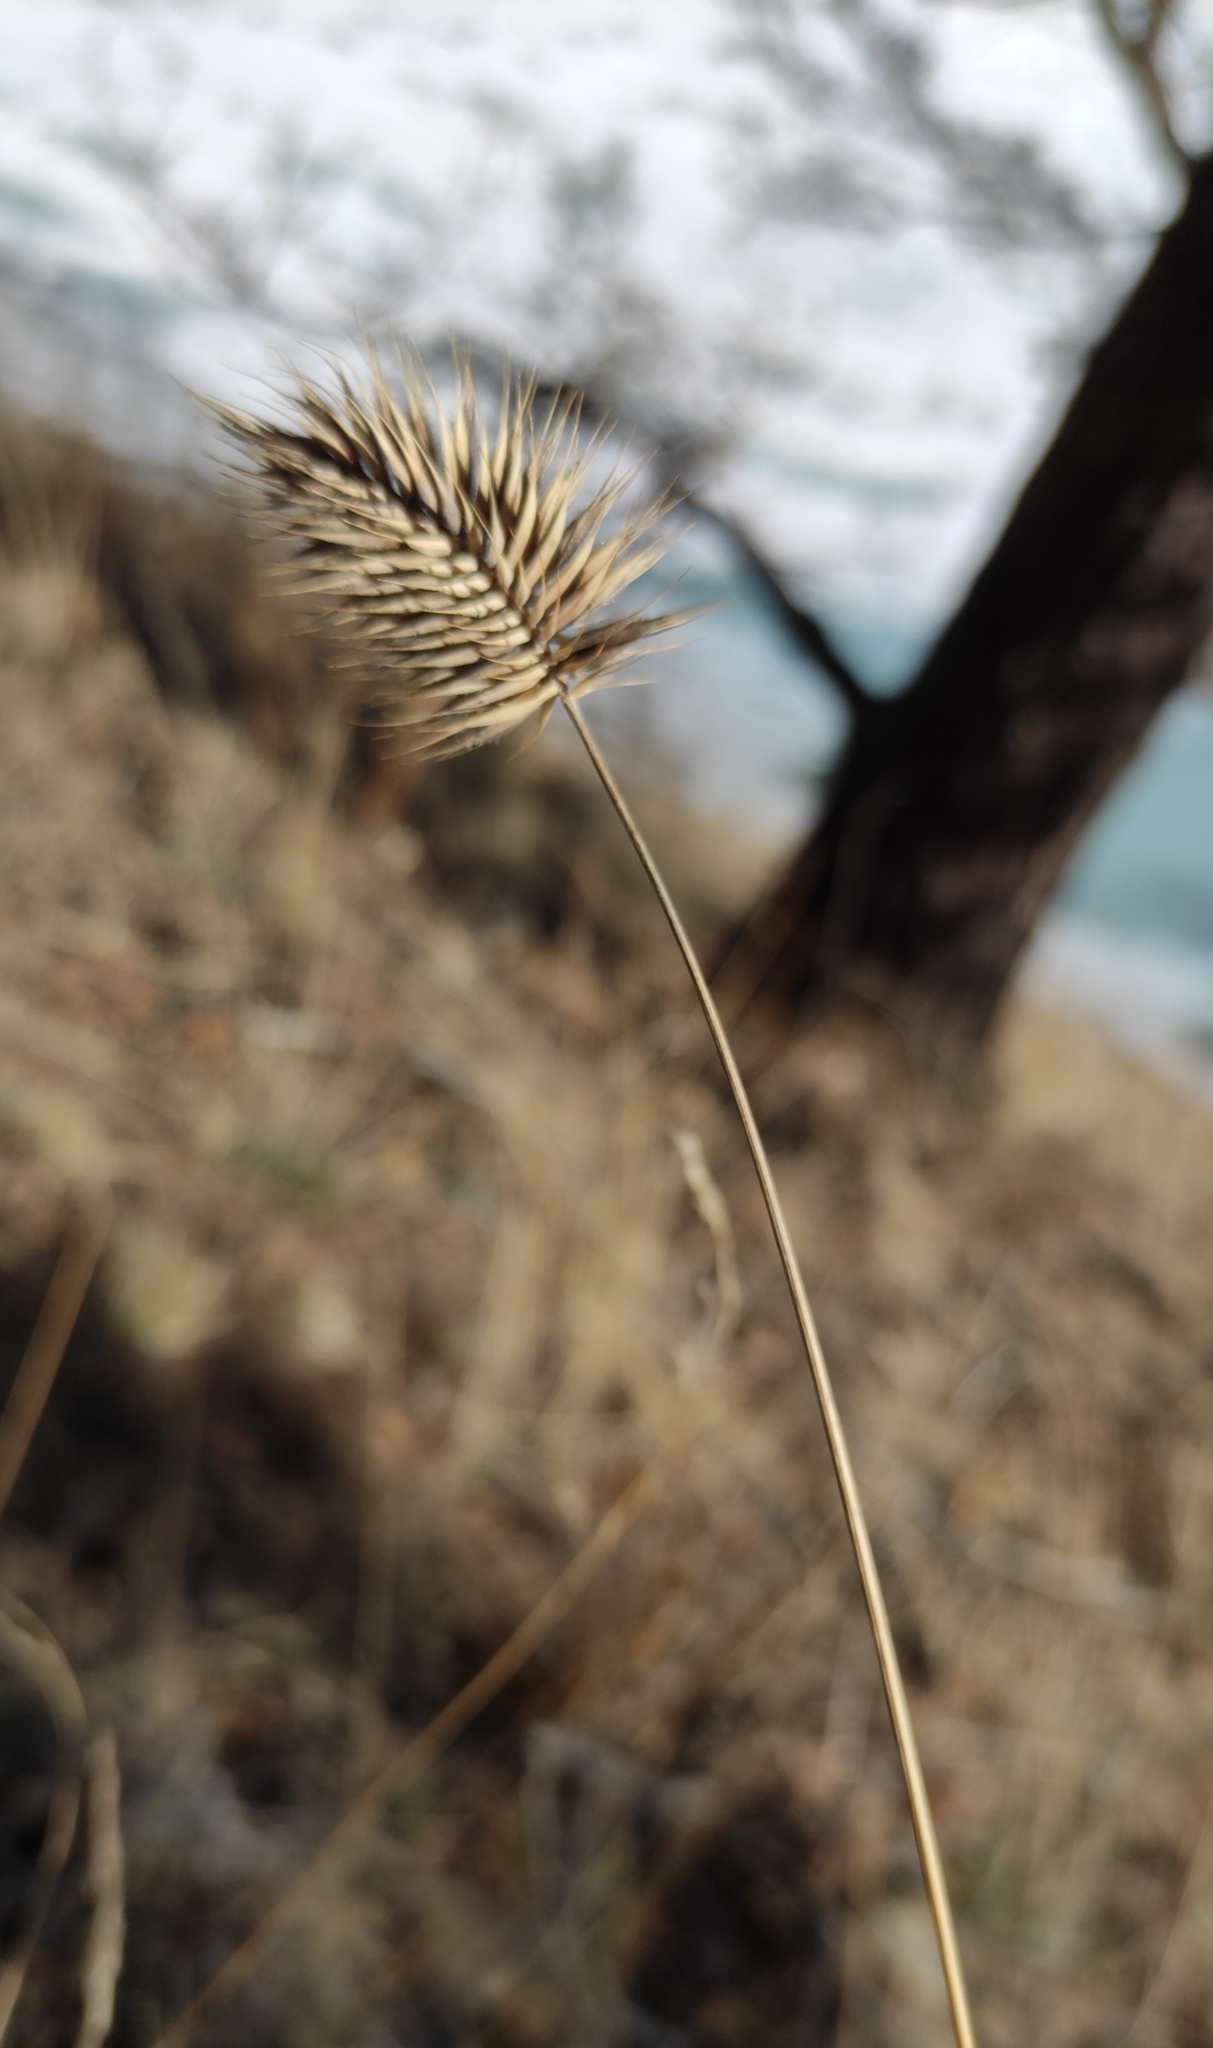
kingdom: Plantae
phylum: Tracheophyta
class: Liliopsida
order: Poales
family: Poaceae
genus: Agropyron
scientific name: Agropyron cristatum
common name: Crested wheatgrass
